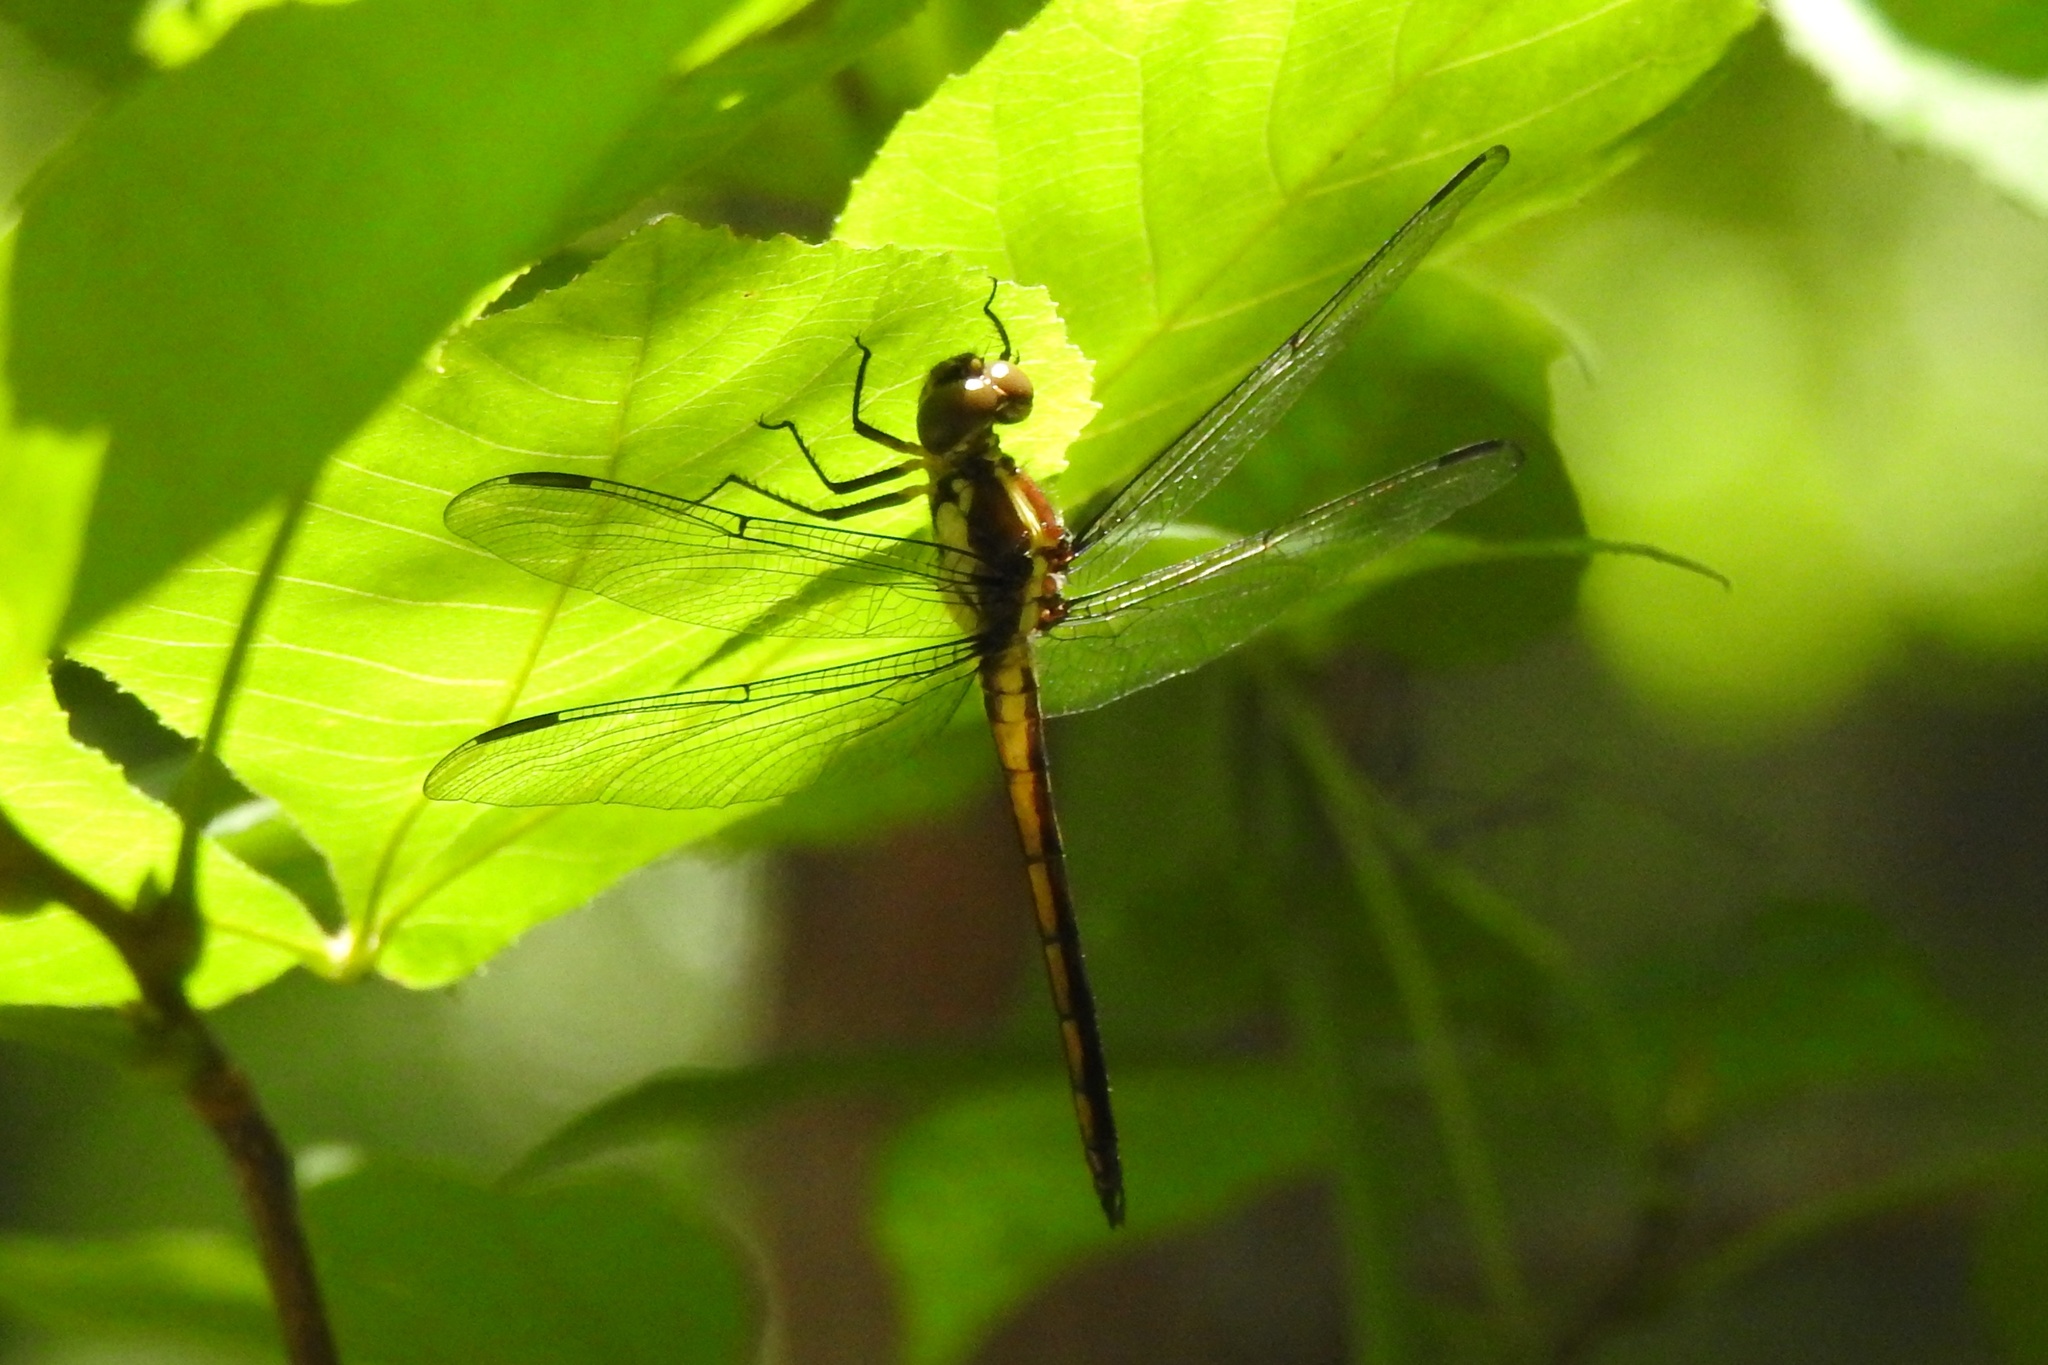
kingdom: Animalia
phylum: Arthropoda
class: Insecta
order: Odonata
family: Libellulidae
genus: Libellula
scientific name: Libellula incesta
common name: Slaty skimmer
